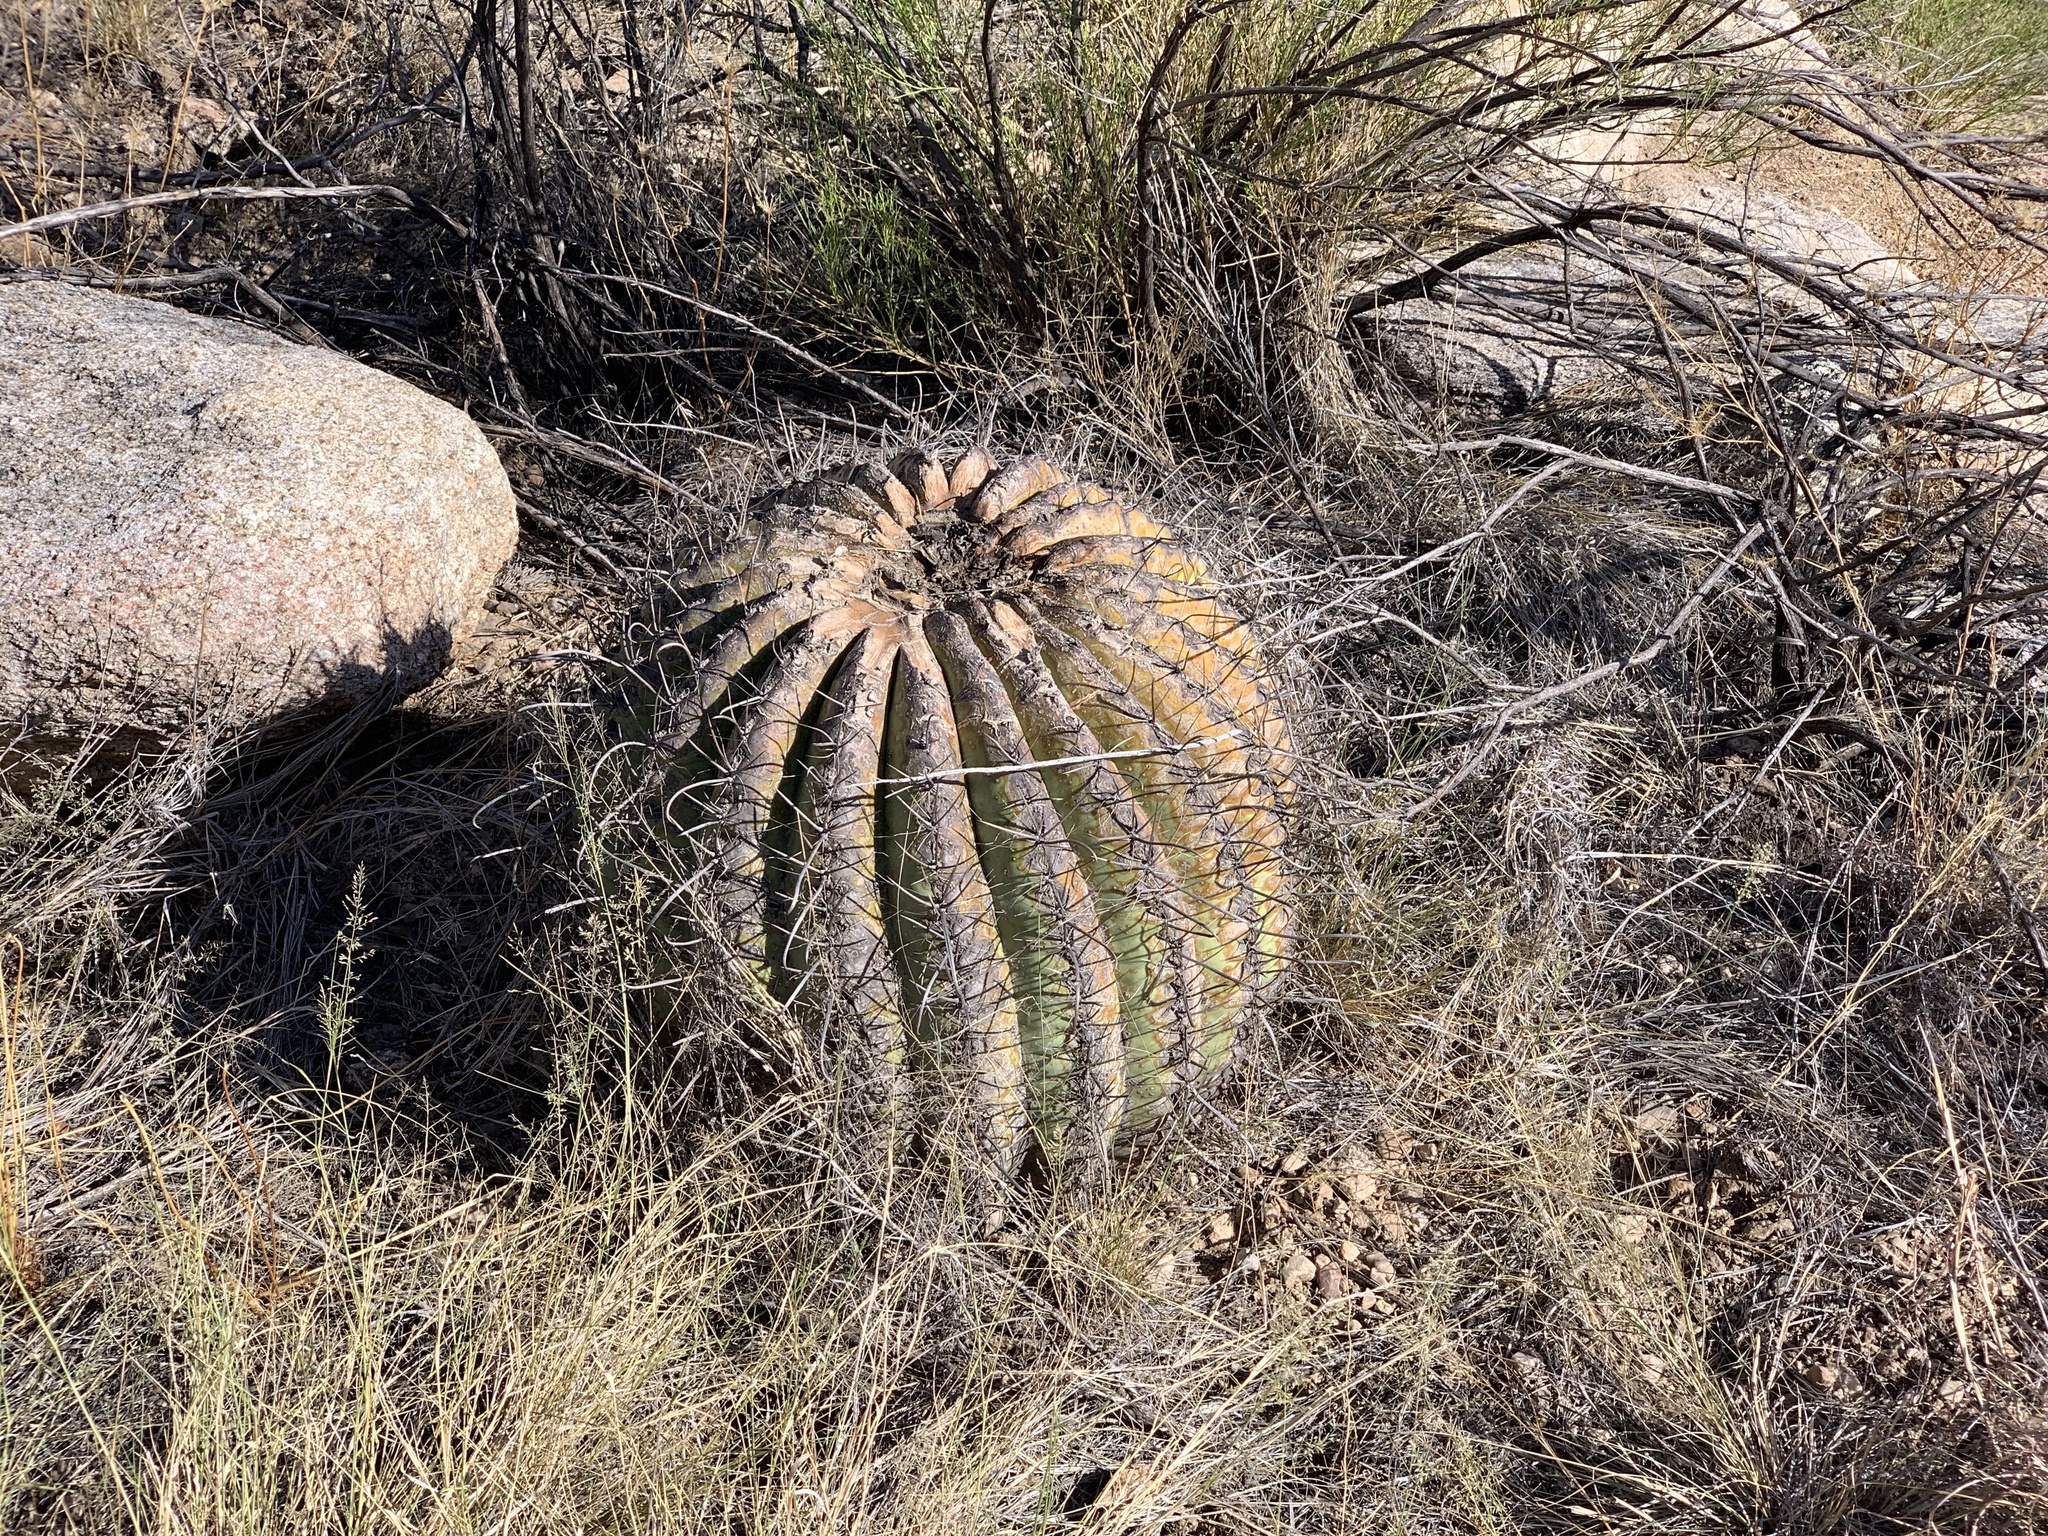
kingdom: Plantae
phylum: Tracheophyta
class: Magnoliopsida
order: Caryophyllales
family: Cactaceae
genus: Ferocactus
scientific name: Ferocactus wislizeni
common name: Candy barrel cactus
